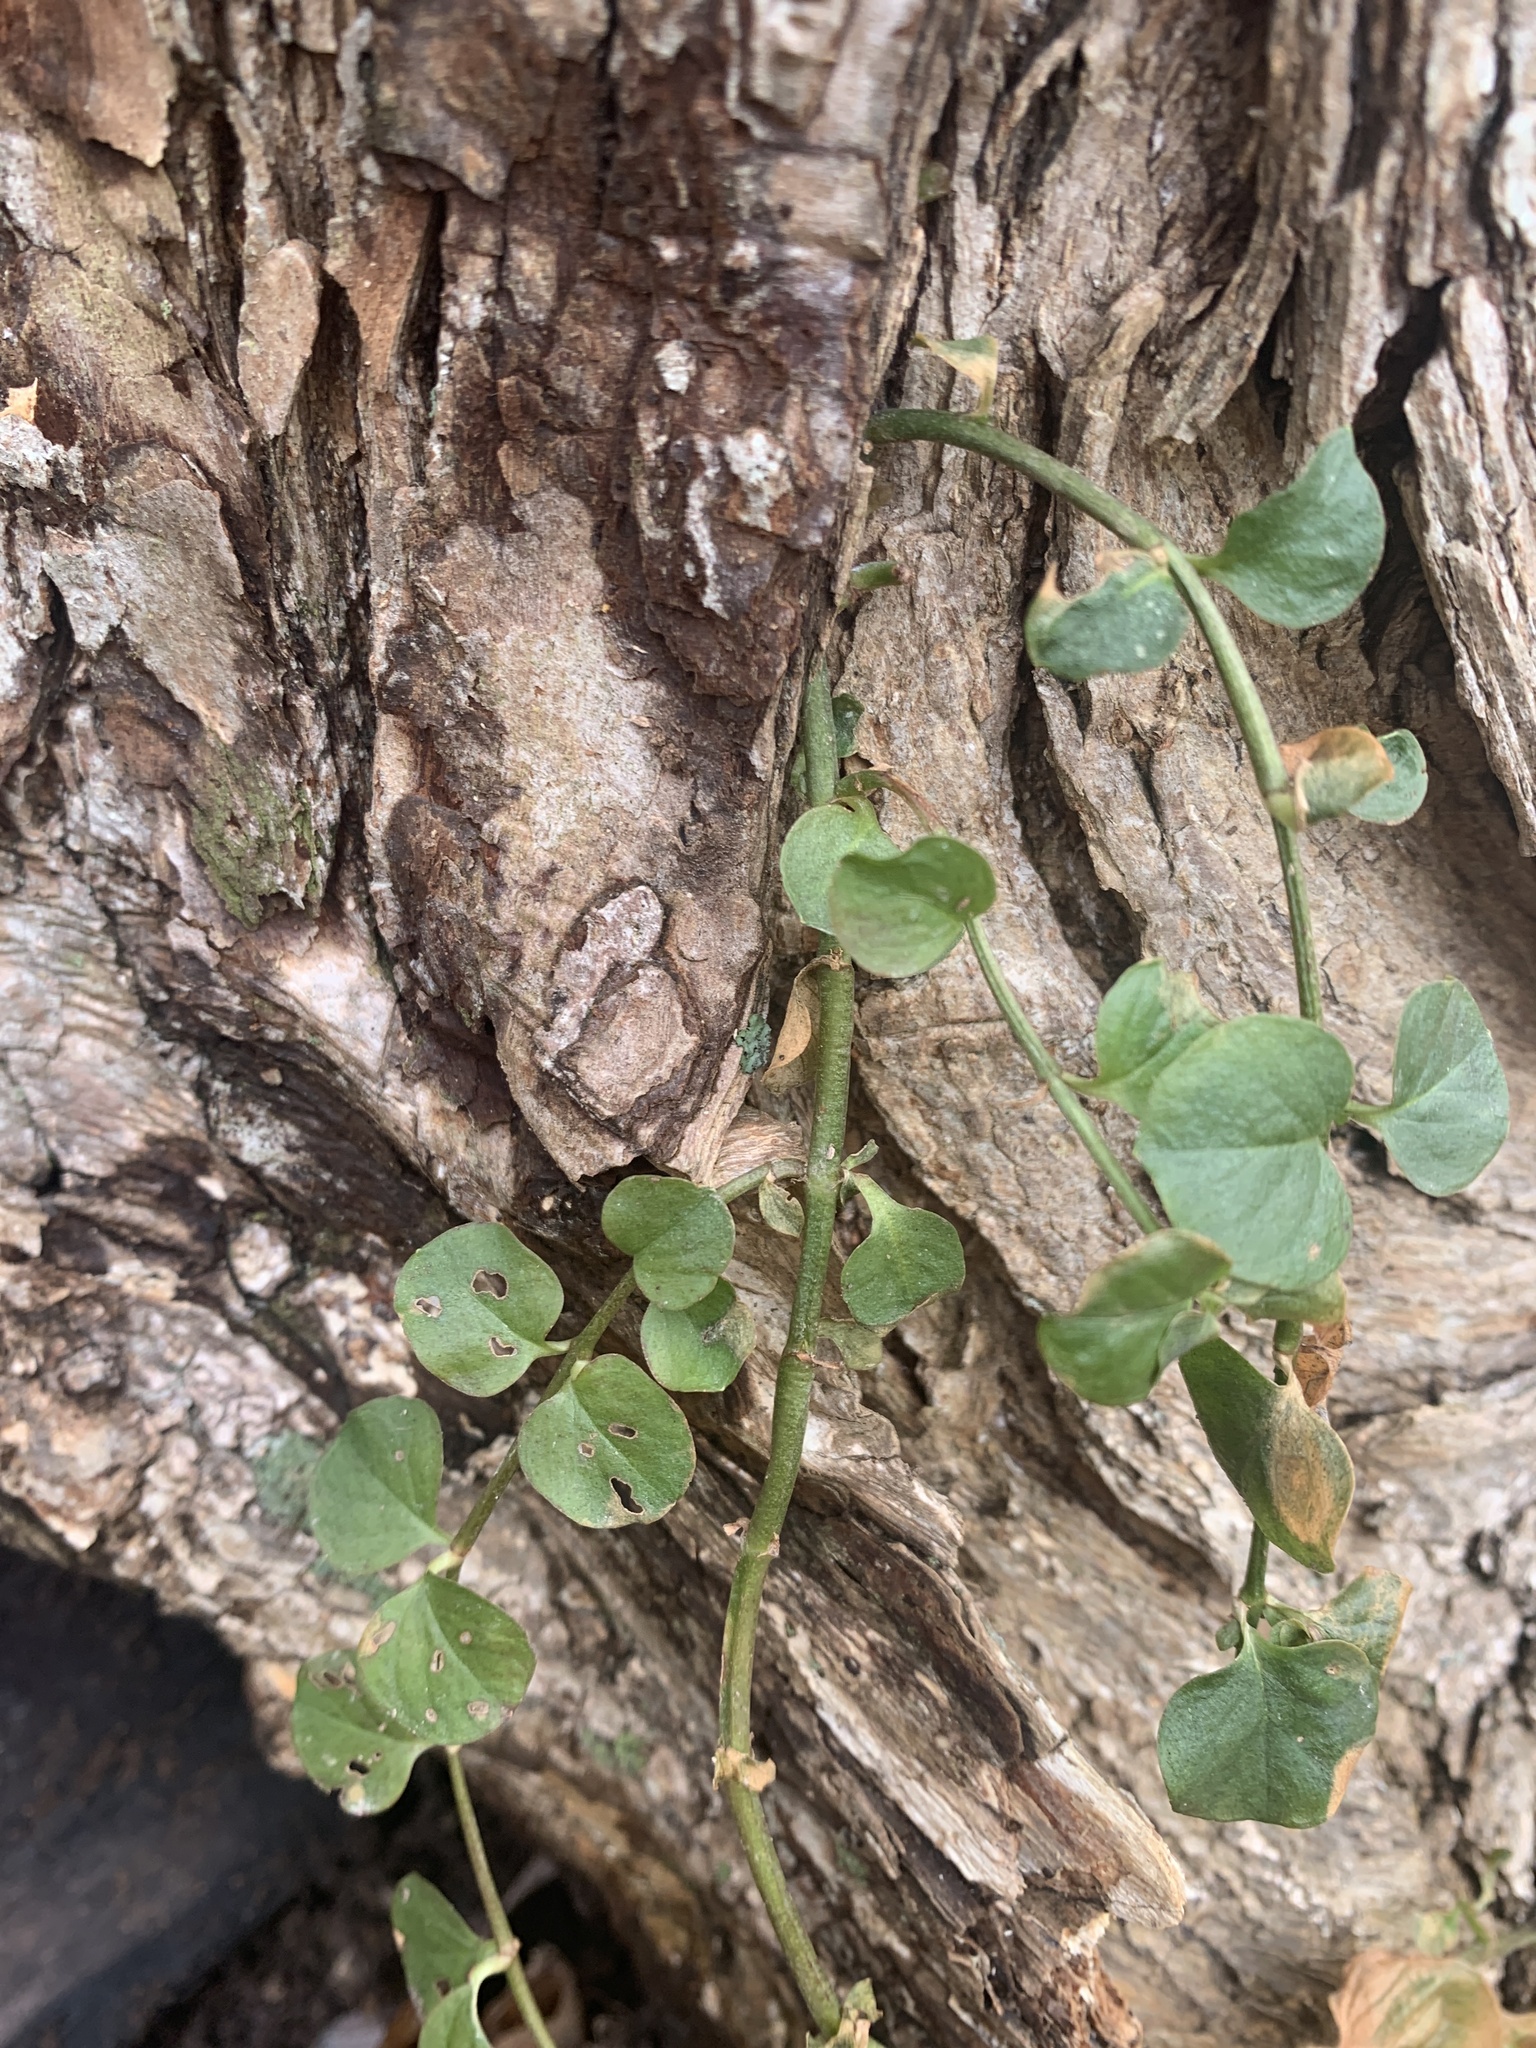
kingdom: Plantae
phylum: Tracheophyta
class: Magnoliopsida
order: Ericales
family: Primulaceae
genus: Lysimachia
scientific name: Lysimachia nummularia
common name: Moneywort
